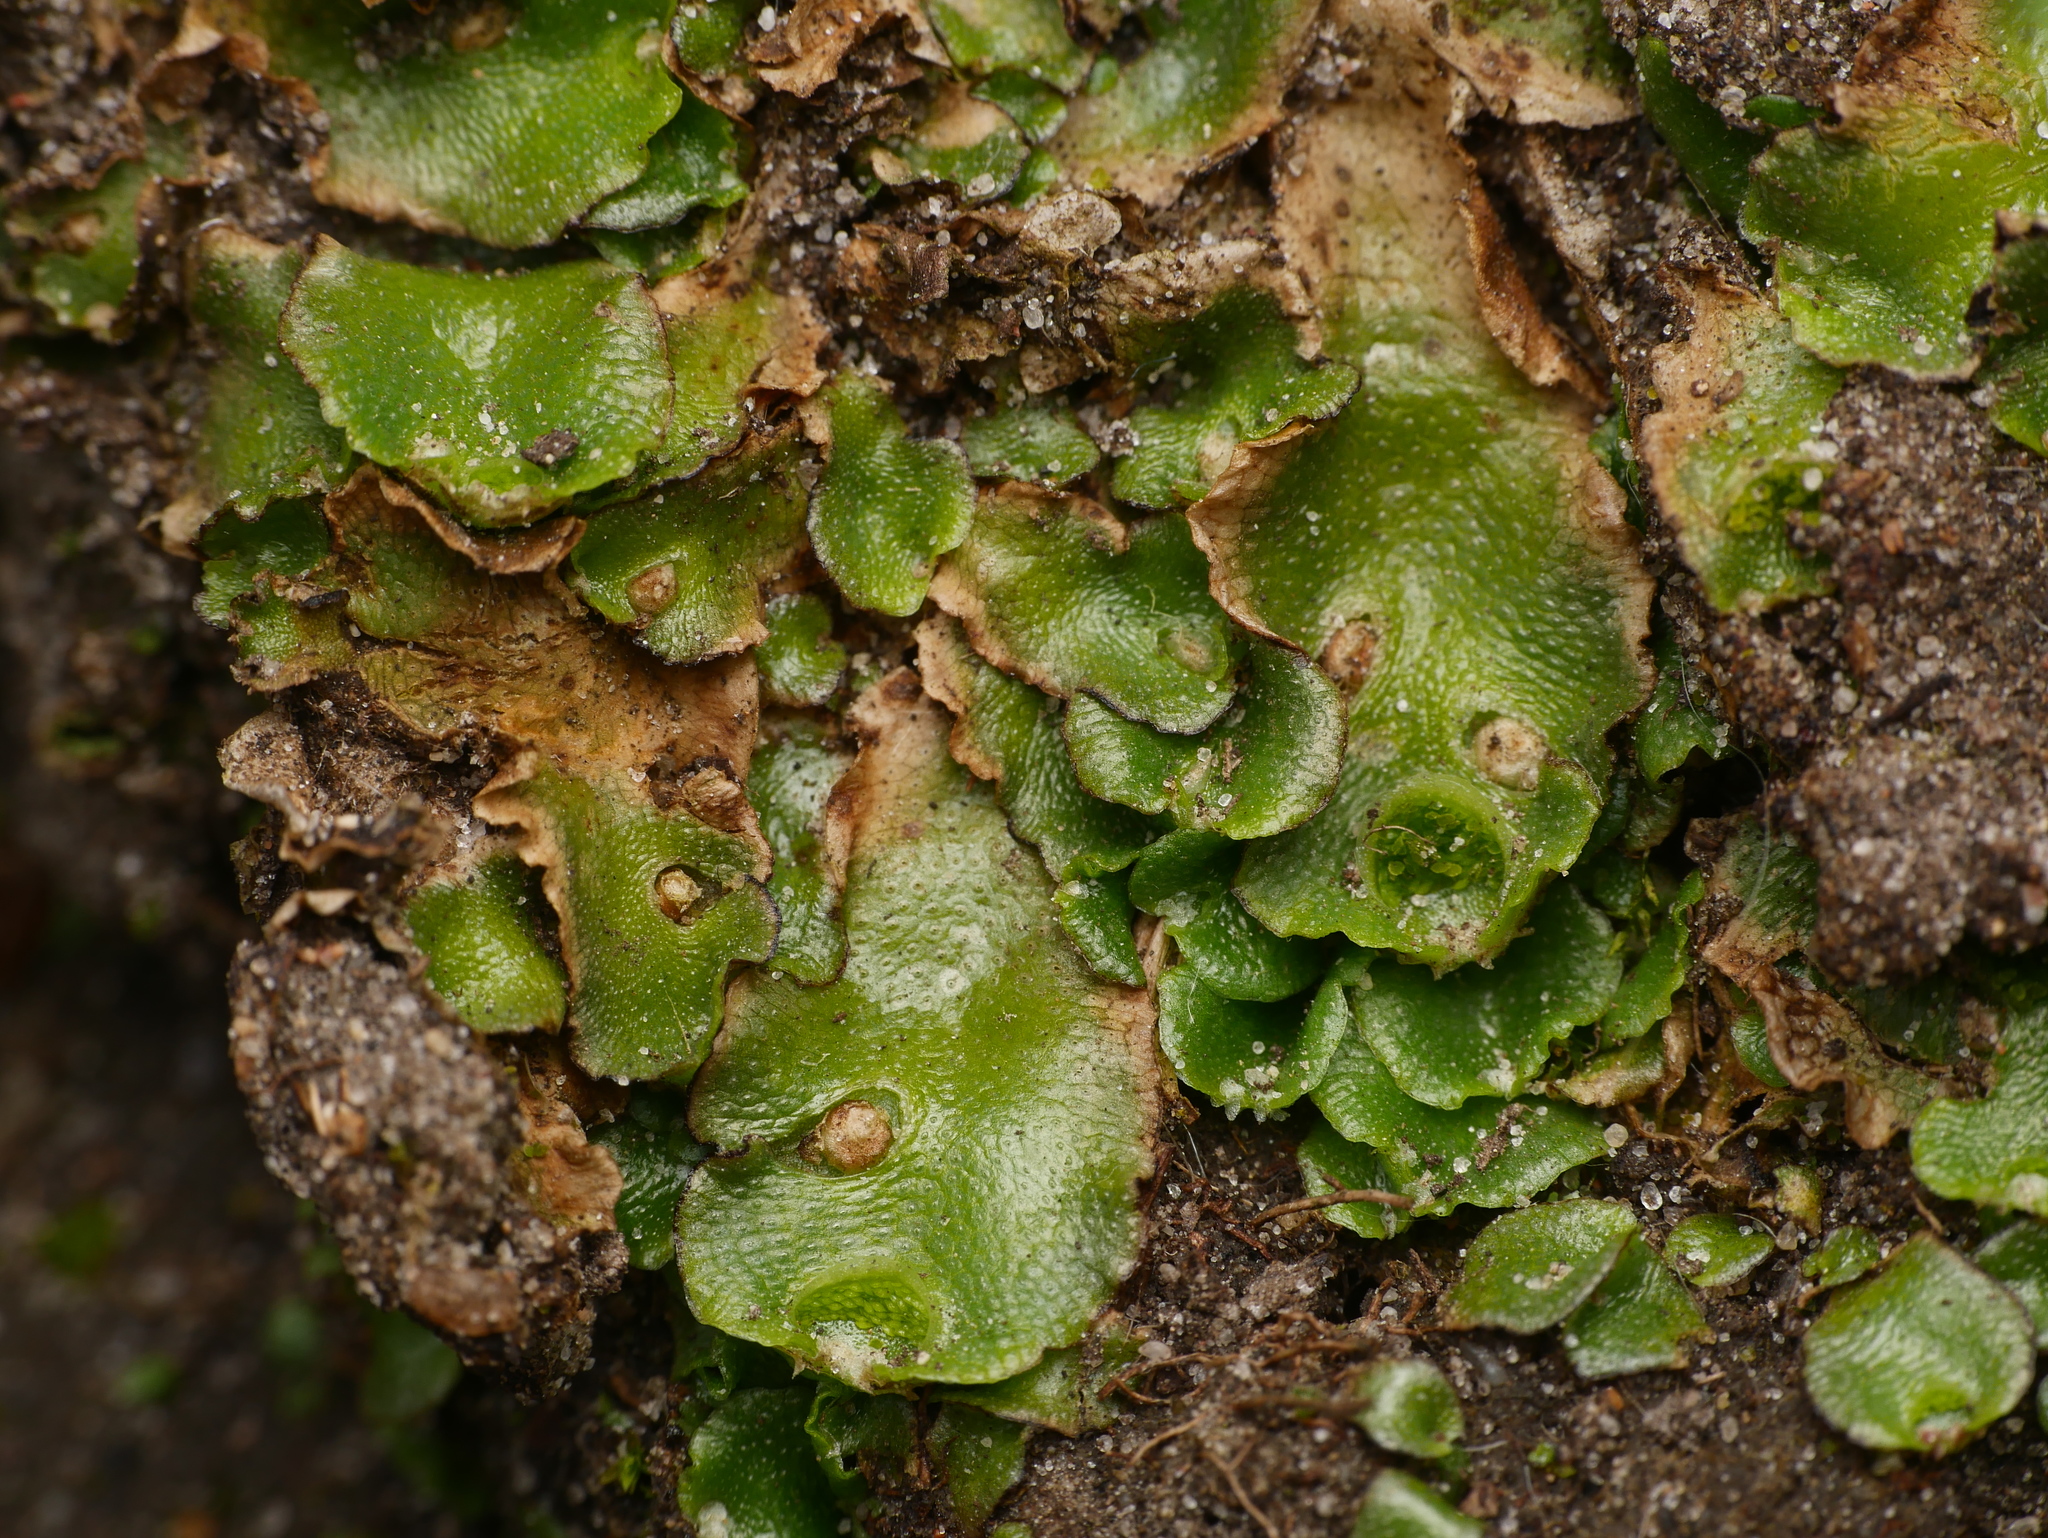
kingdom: Plantae
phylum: Marchantiophyta
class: Marchantiopsida
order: Lunulariales
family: Lunulariaceae
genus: Lunularia
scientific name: Lunularia cruciata
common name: Crescent-cup liverwort
